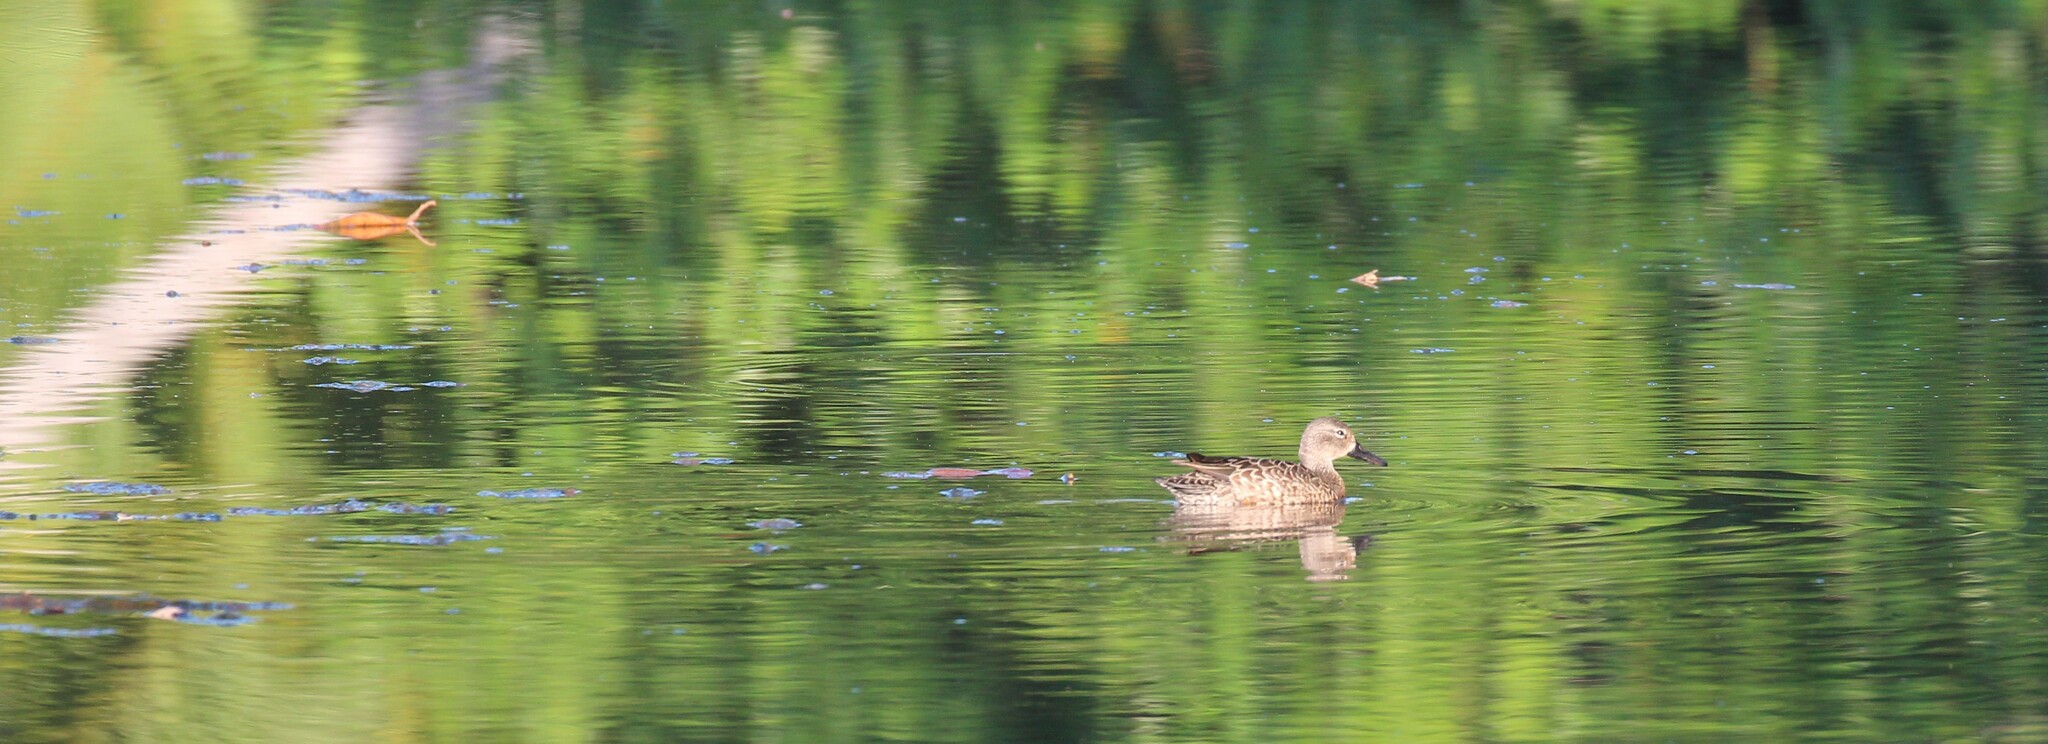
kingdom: Animalia
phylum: Chordata
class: Aves
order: Anseriformes
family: Anatidae
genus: Spatula
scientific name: Spatula discors
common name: Blue-winged teal
